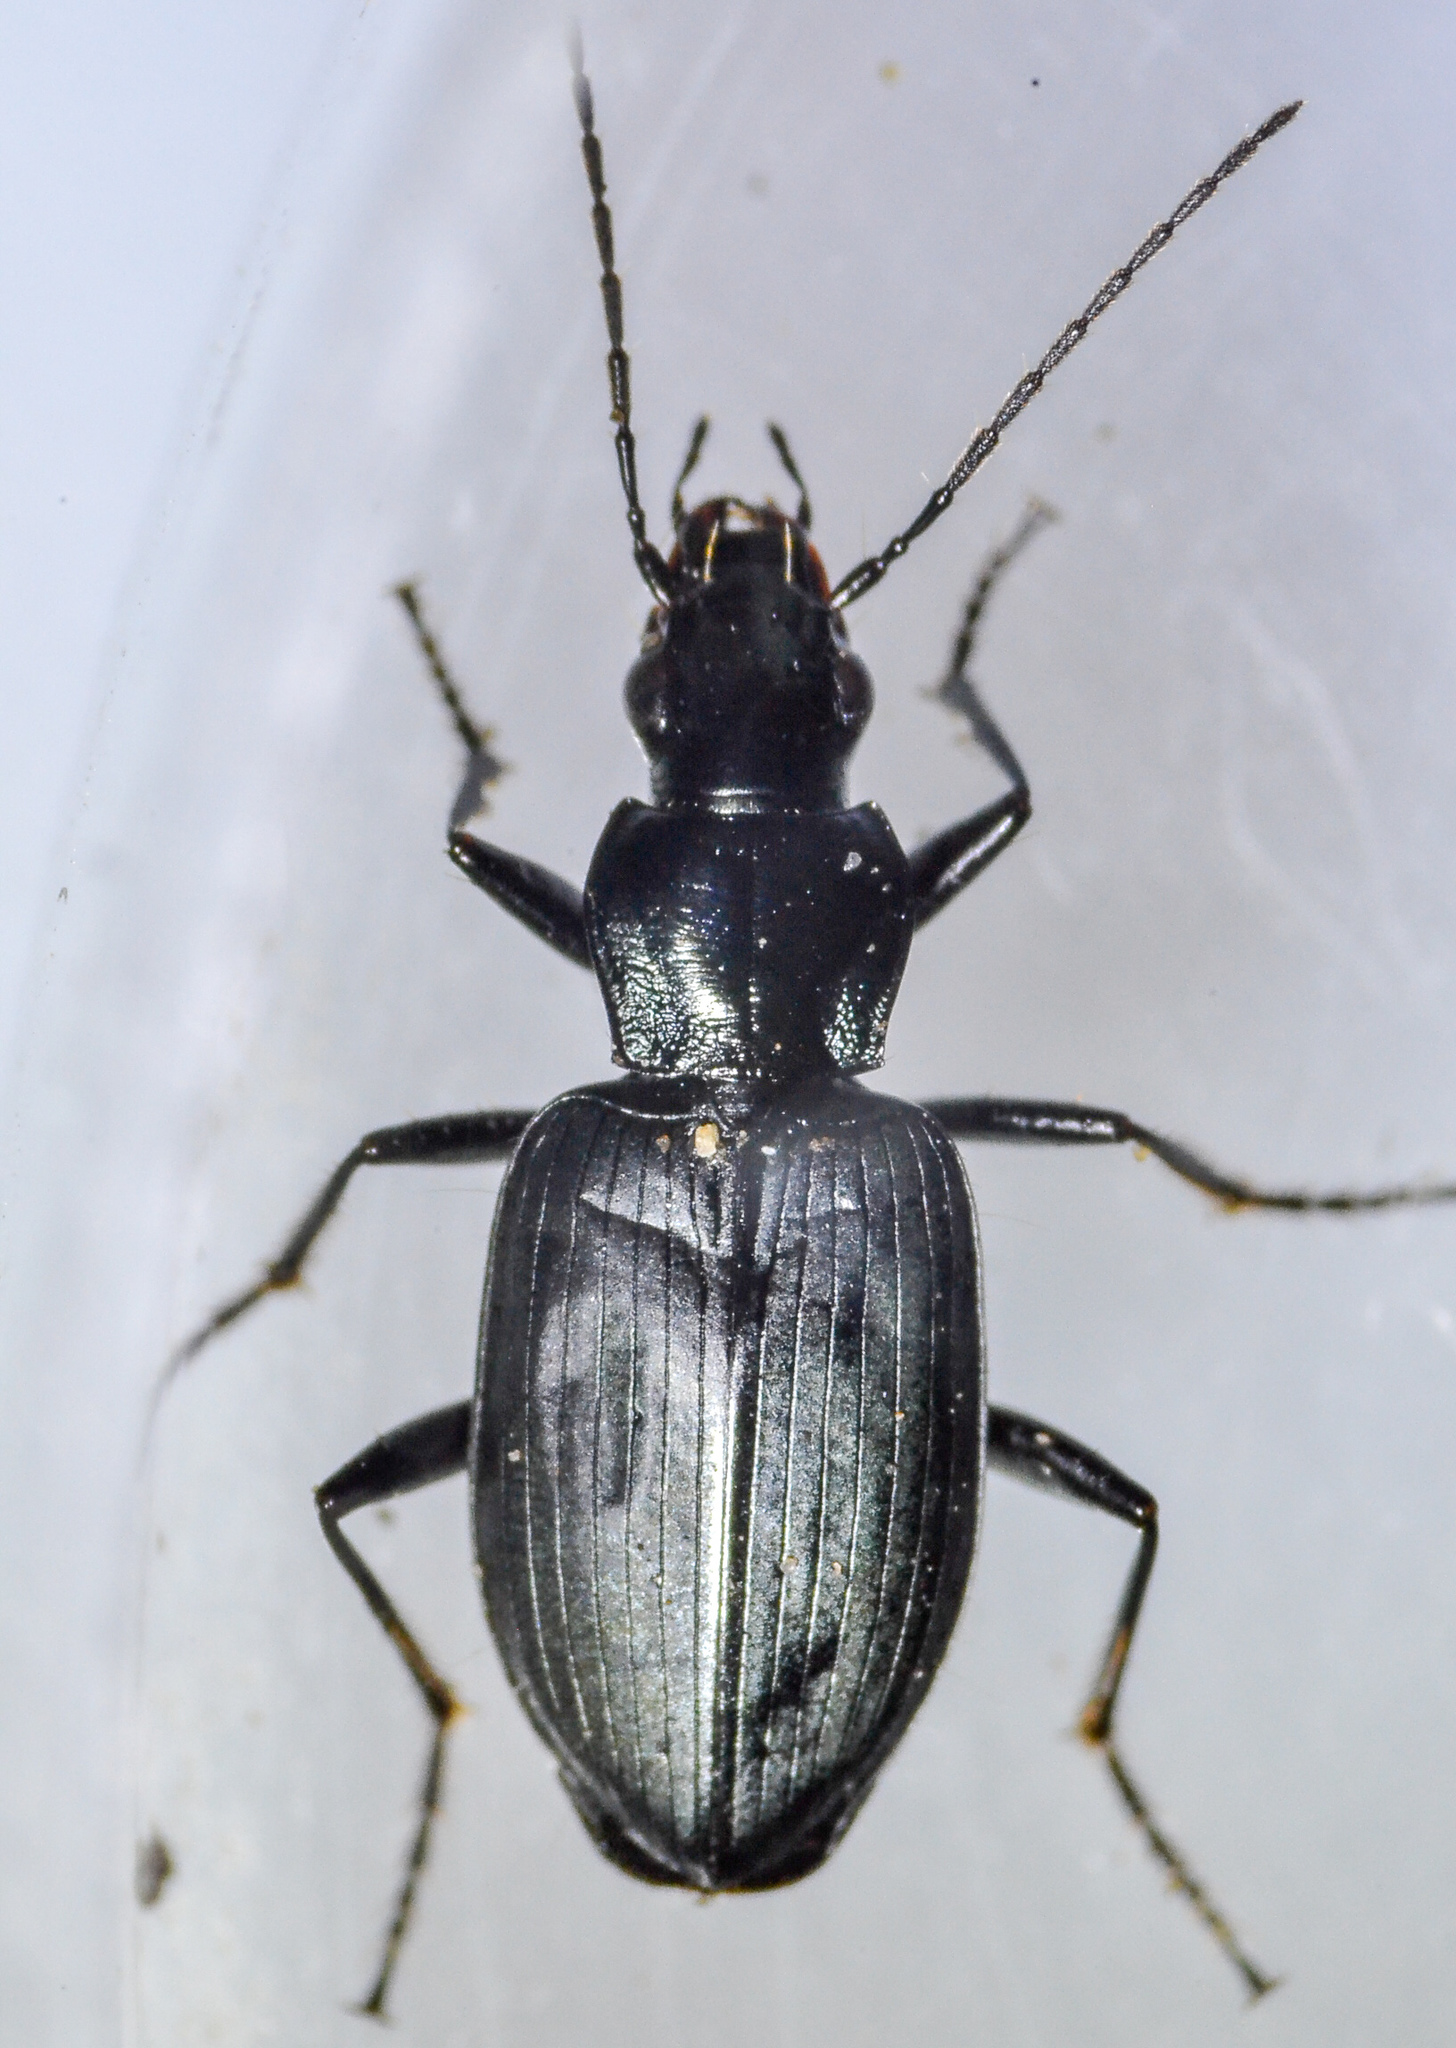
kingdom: Animalia
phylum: Arthropoda
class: Insecta
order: Coleoptera
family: Carabidae
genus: Anchomenus
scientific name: Anchomenus funebris
